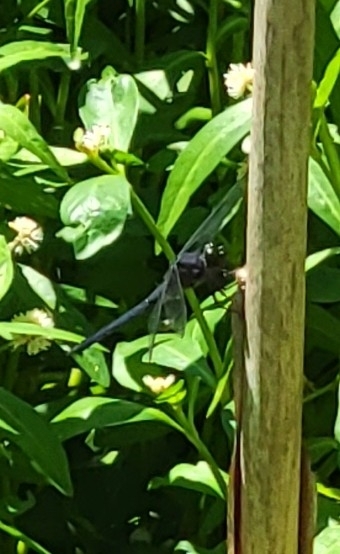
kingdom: Animalia
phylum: Arthropoda
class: Insecta
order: Odonata
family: Libellulidae
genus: Libellula
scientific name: Libellula incesta
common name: Slaty skimmer
